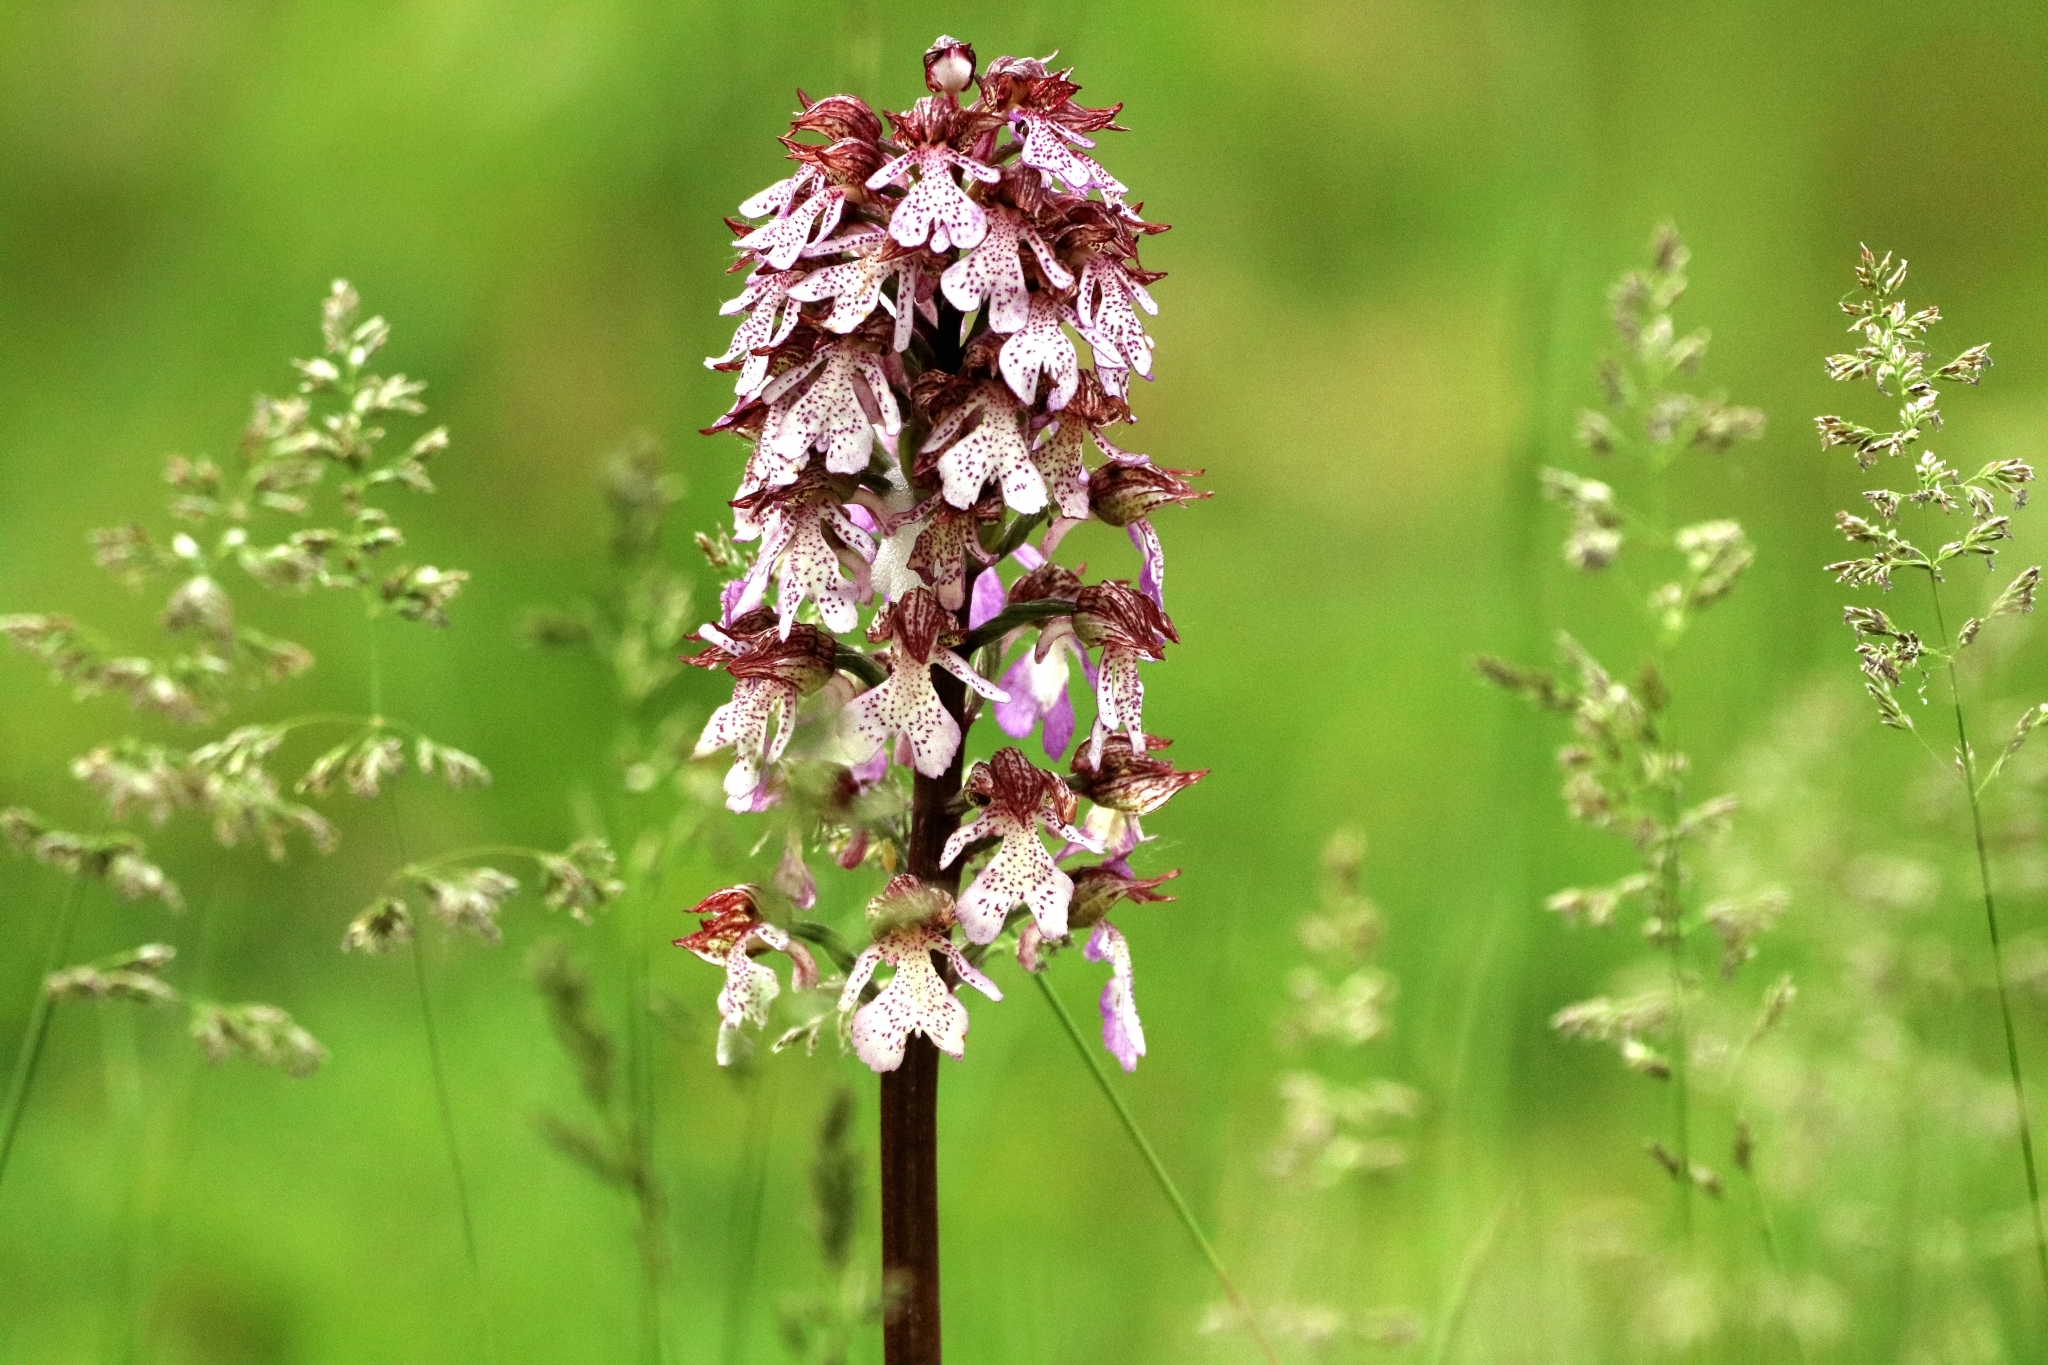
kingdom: Plantae
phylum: Tracheophyta
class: Liliopsida
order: Asparagales
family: Orchidaceae
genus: Orchis
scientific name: Orchis purpurea
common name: Lady orchid
